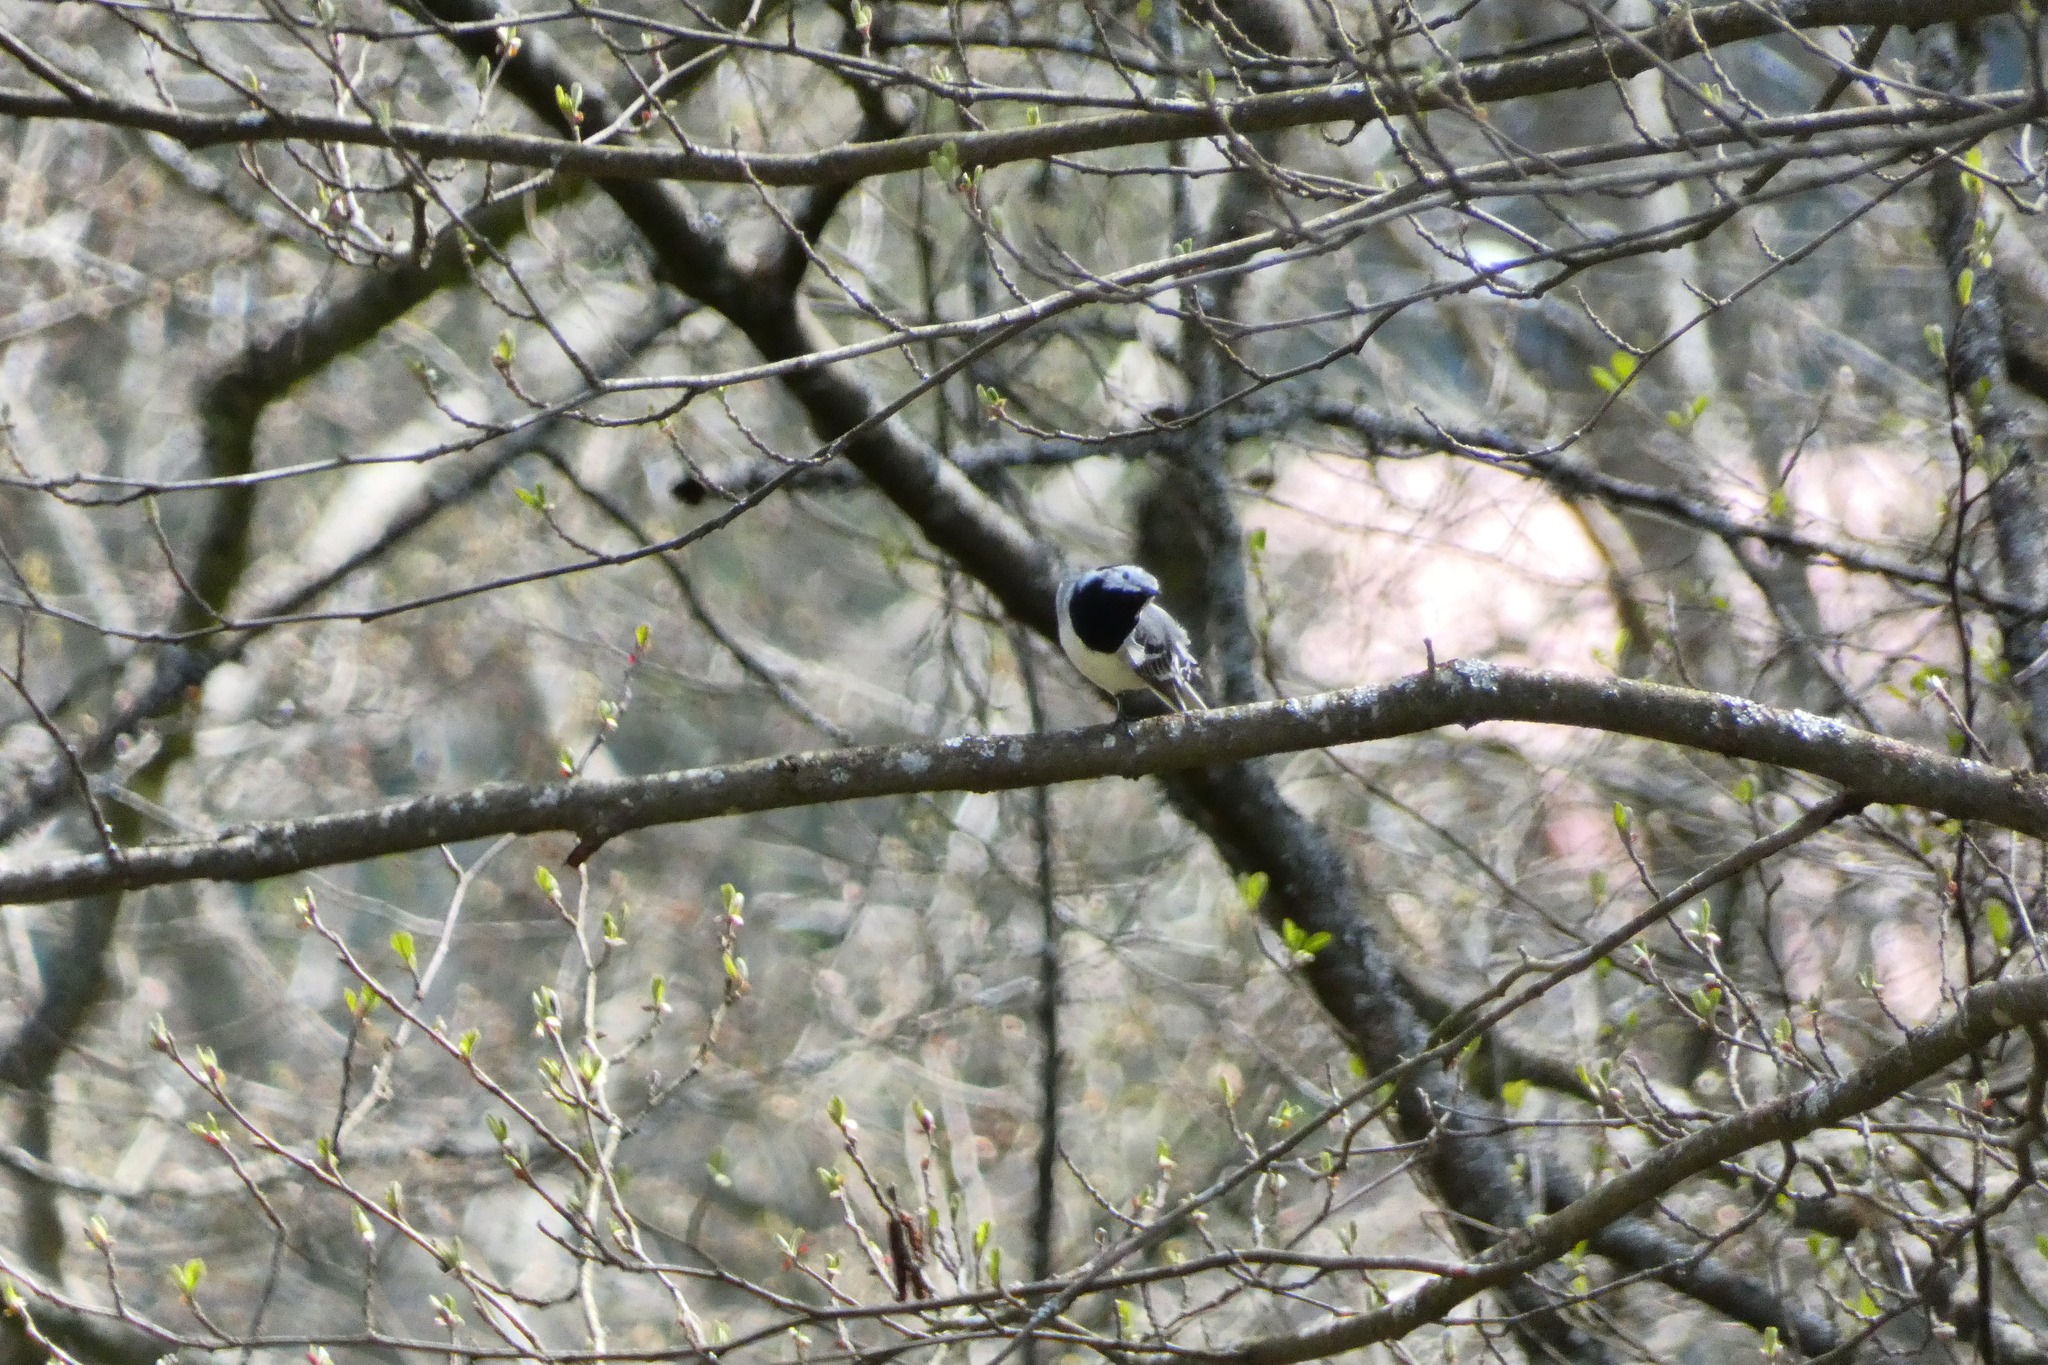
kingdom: Animalia
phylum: Chordata
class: Aves
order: Passeriformes
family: Motacillidae
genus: Motacilla
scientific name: Motacilla alba
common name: White wagtail
